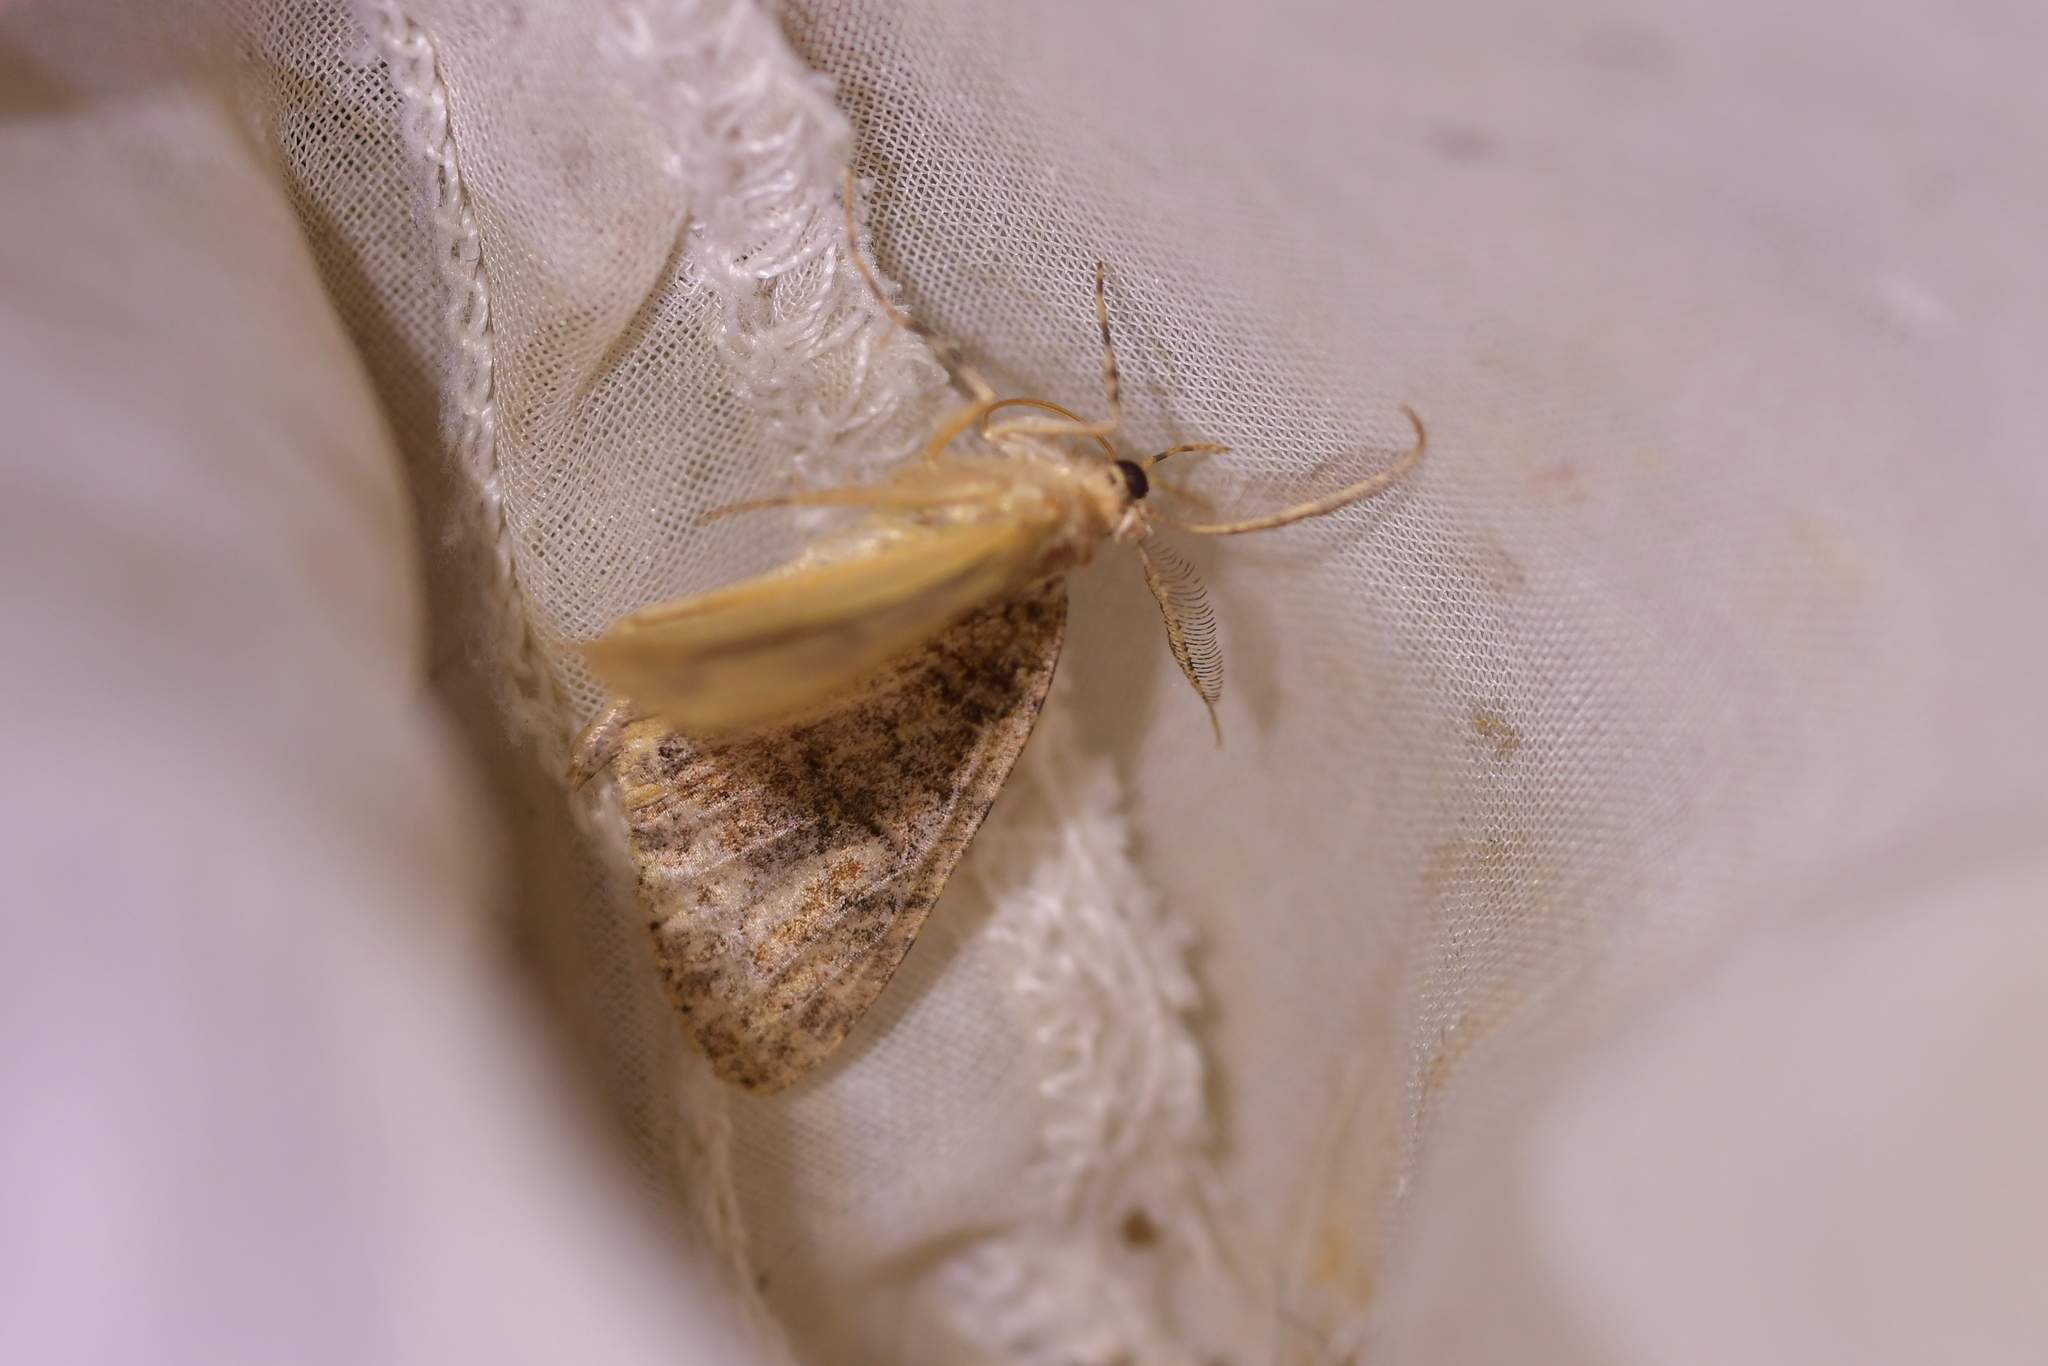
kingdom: Animalia
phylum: Arthropoda
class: Insecta
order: Lepidoptera
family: Geometridae
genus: Pseudocoremia
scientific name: Pseudocoremia suavis
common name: Common forest looper
